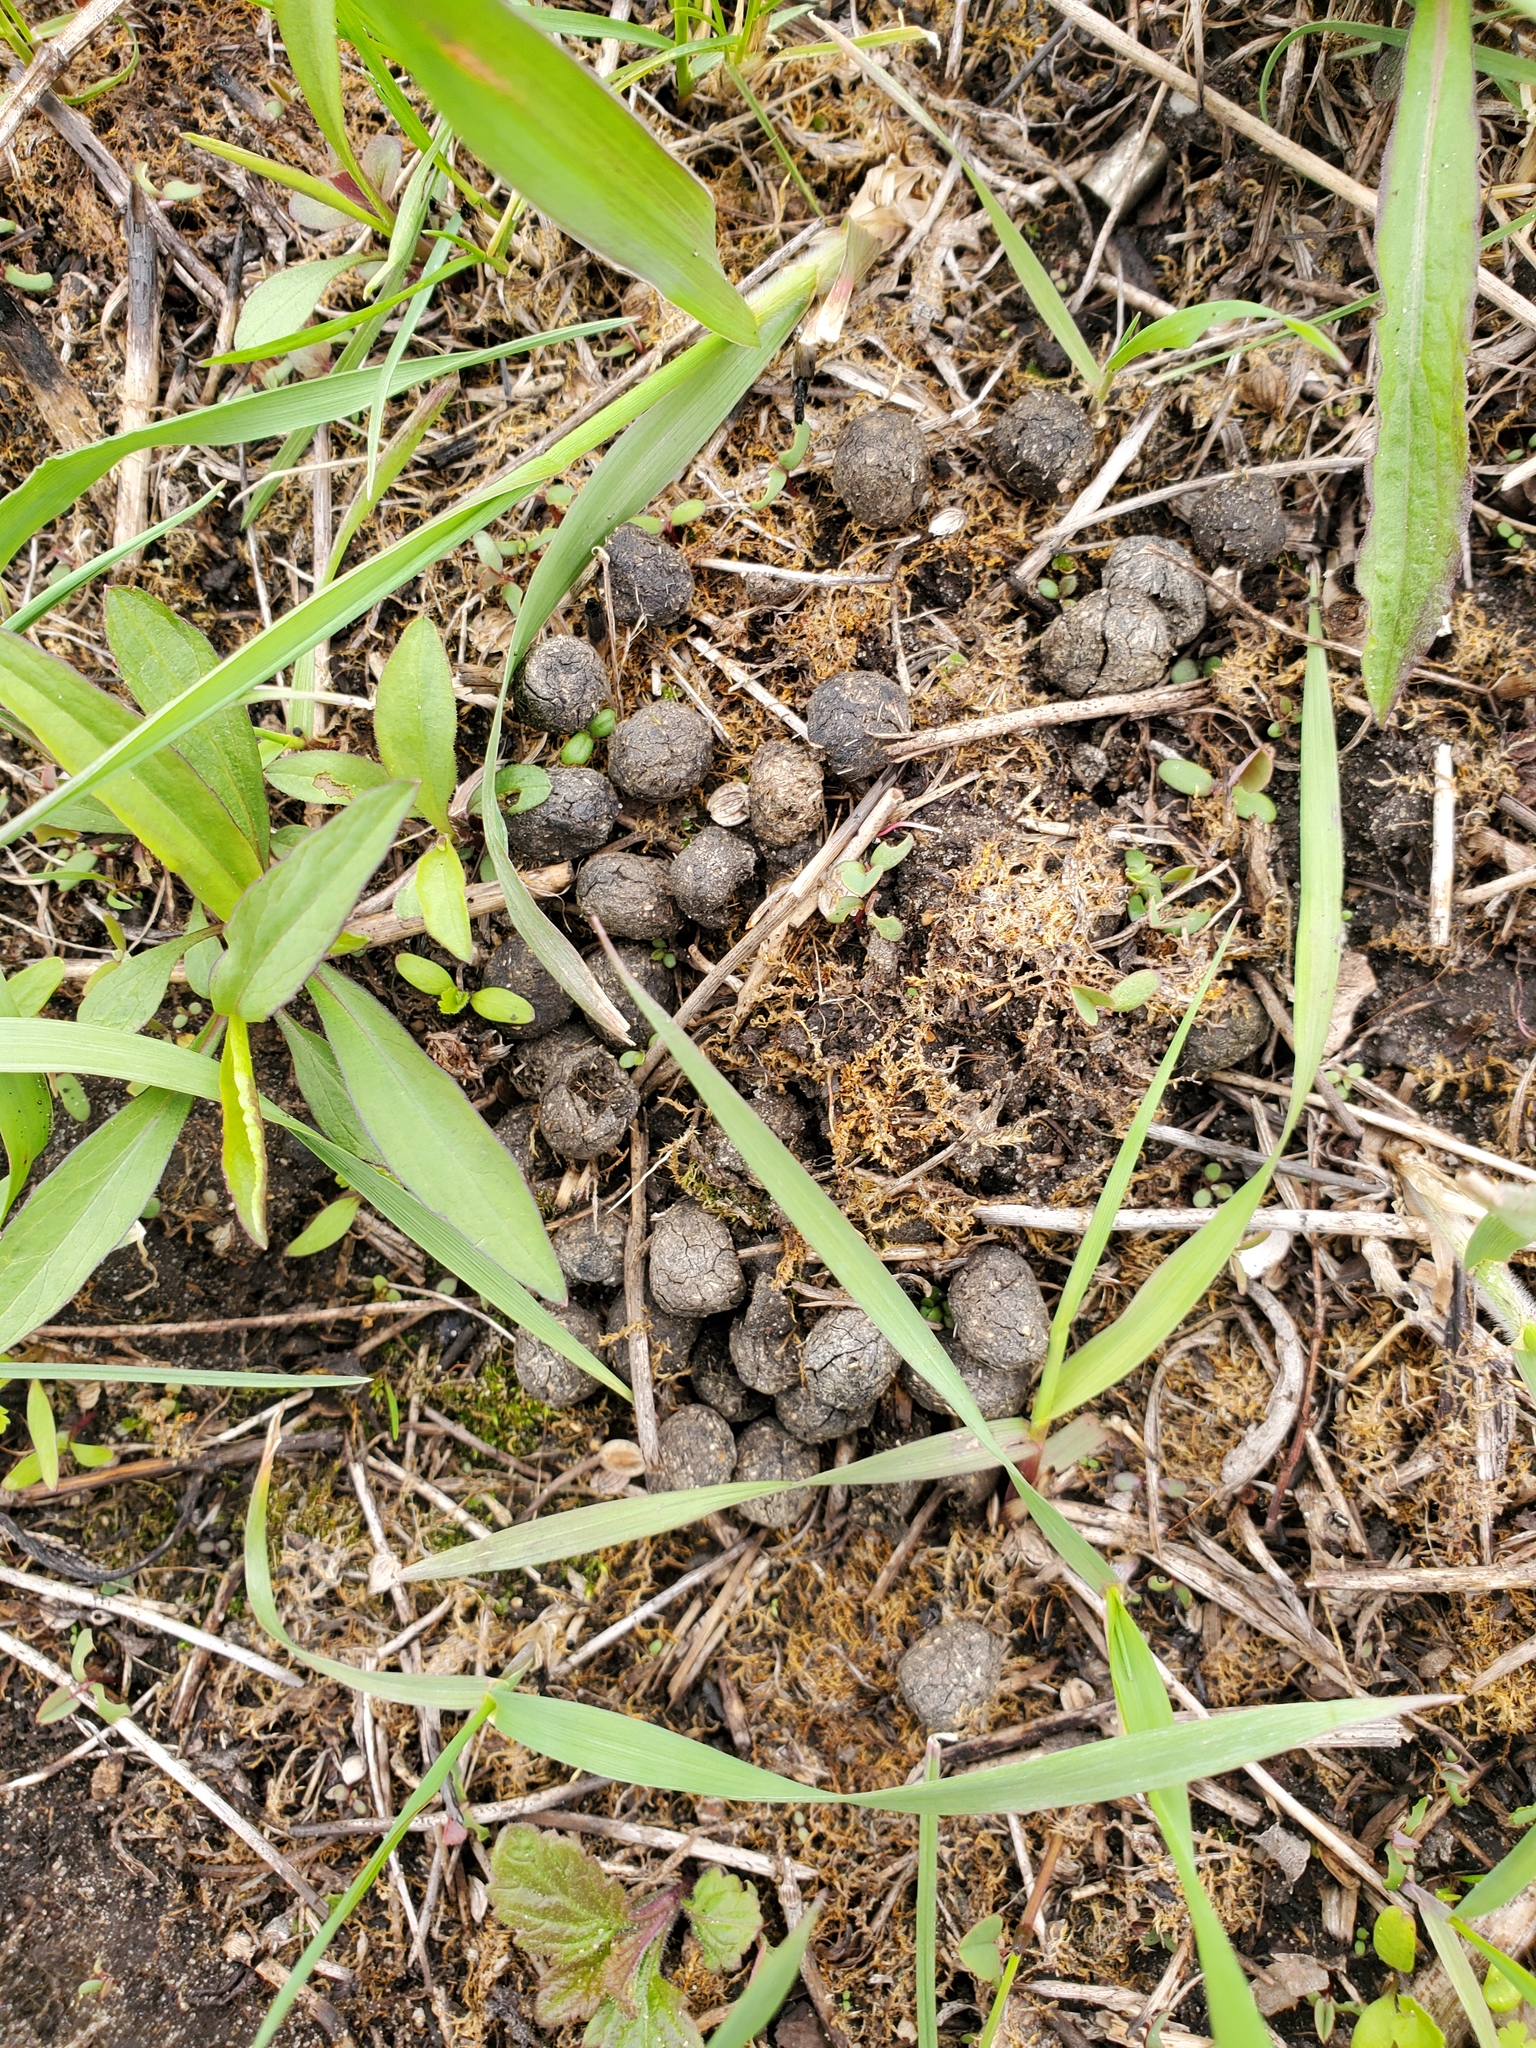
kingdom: Animalia
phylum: Chordata
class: Mammalia
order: Lagomorpha
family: Leporidae
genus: Sylvilagus
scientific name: Sylvilagus floridanus
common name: Eastern cottontail
